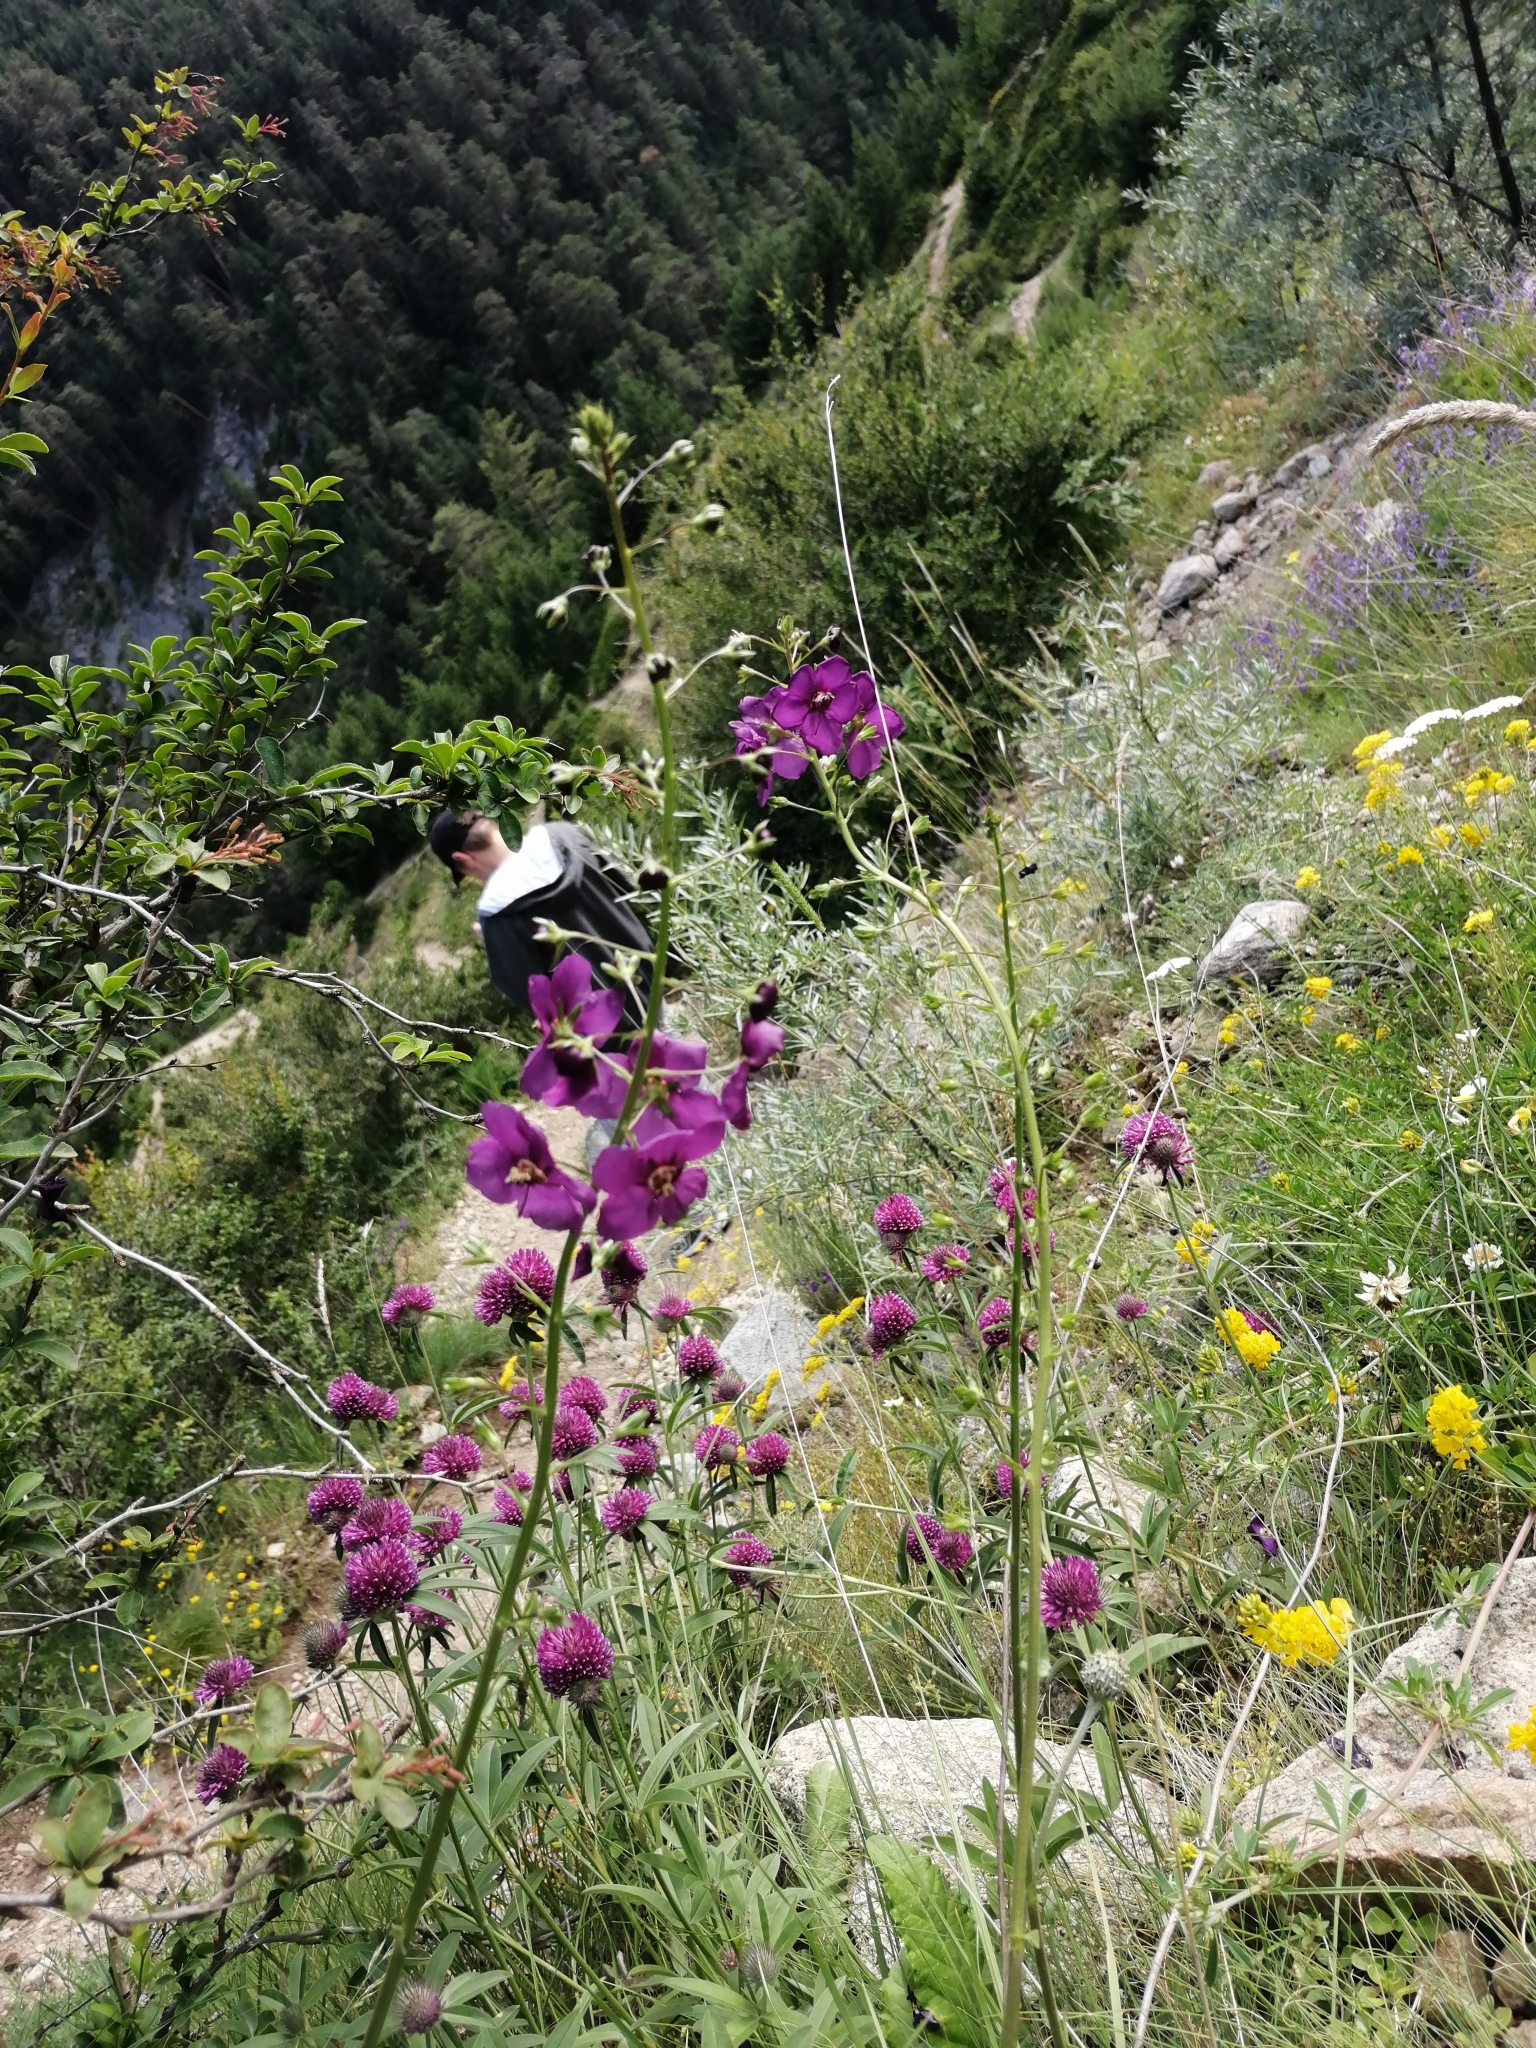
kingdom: Plantae
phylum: Tracheophyta
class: Magnoliopsida
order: Lamiales
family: Scrophulariaceae
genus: Verbascum
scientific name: Verbascum phoeniceum
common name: Purple mullein
